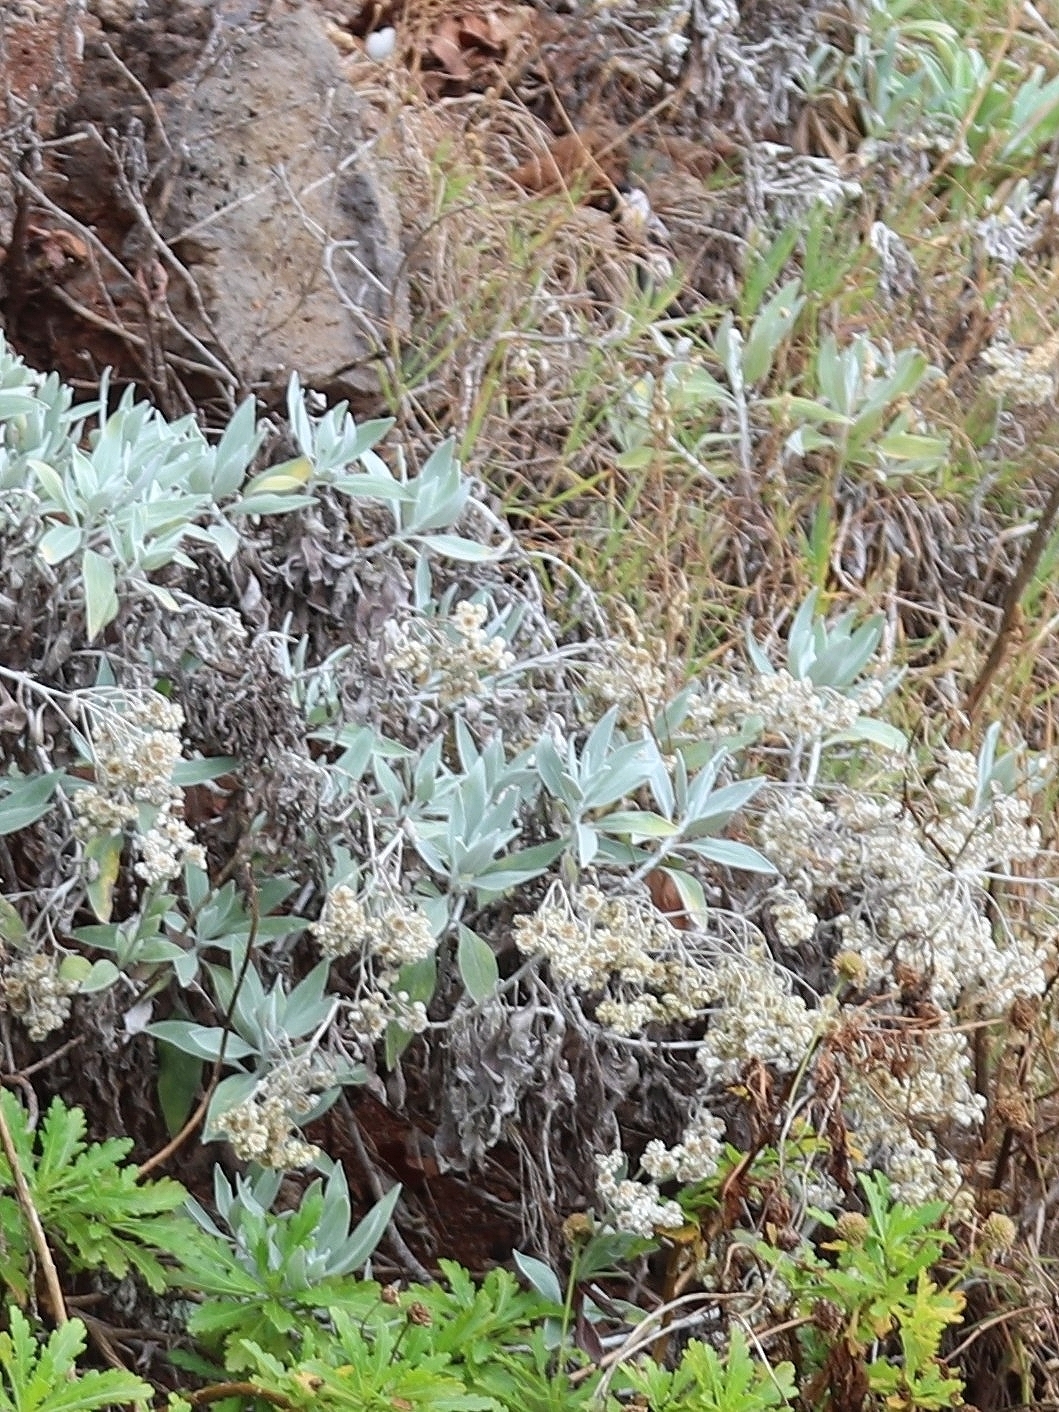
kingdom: Plantae
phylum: Tracheophyta
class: Magnoliopsida
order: Asterales
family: Asteraceae
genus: Helichrysum
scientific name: Helichrysum melaleucum
